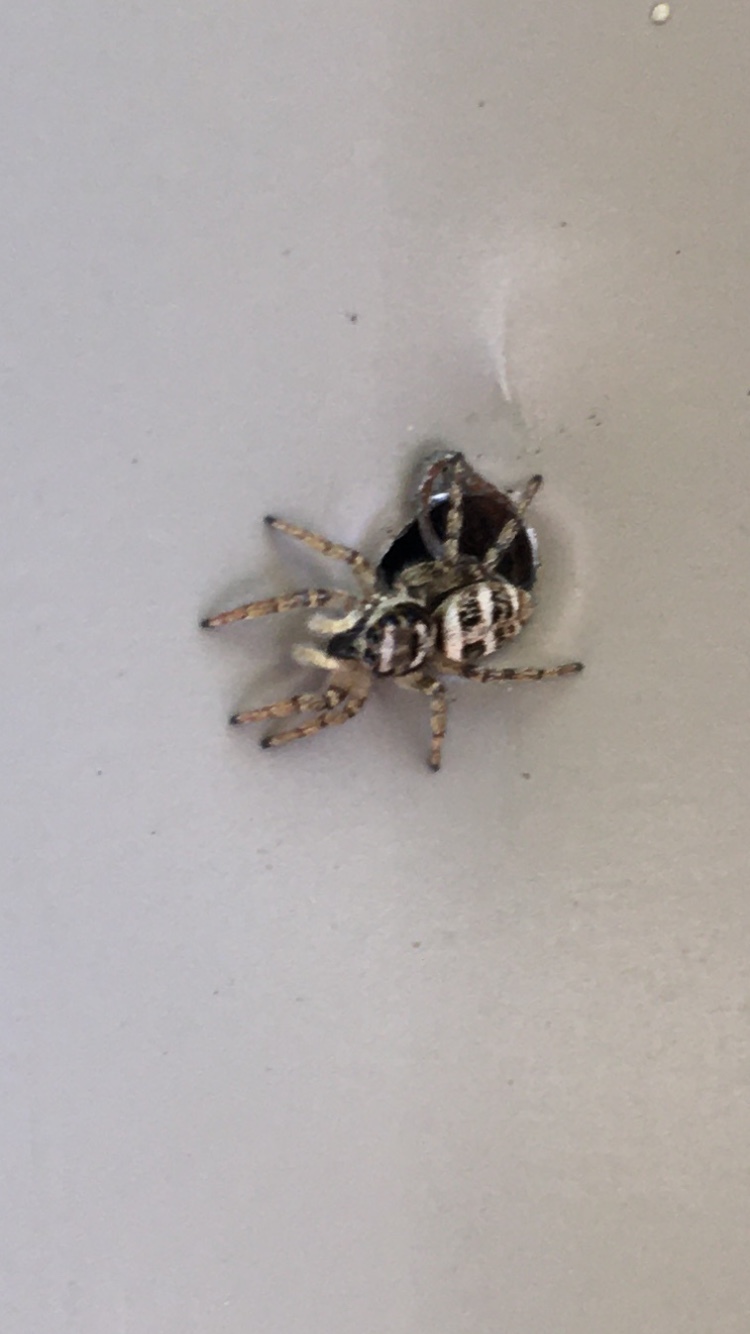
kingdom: Animalia
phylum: Arthropoda
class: Arachnida
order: Araneae
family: Salticidae
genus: Salticus
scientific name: Salticus scenicus
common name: Zebra jumper
